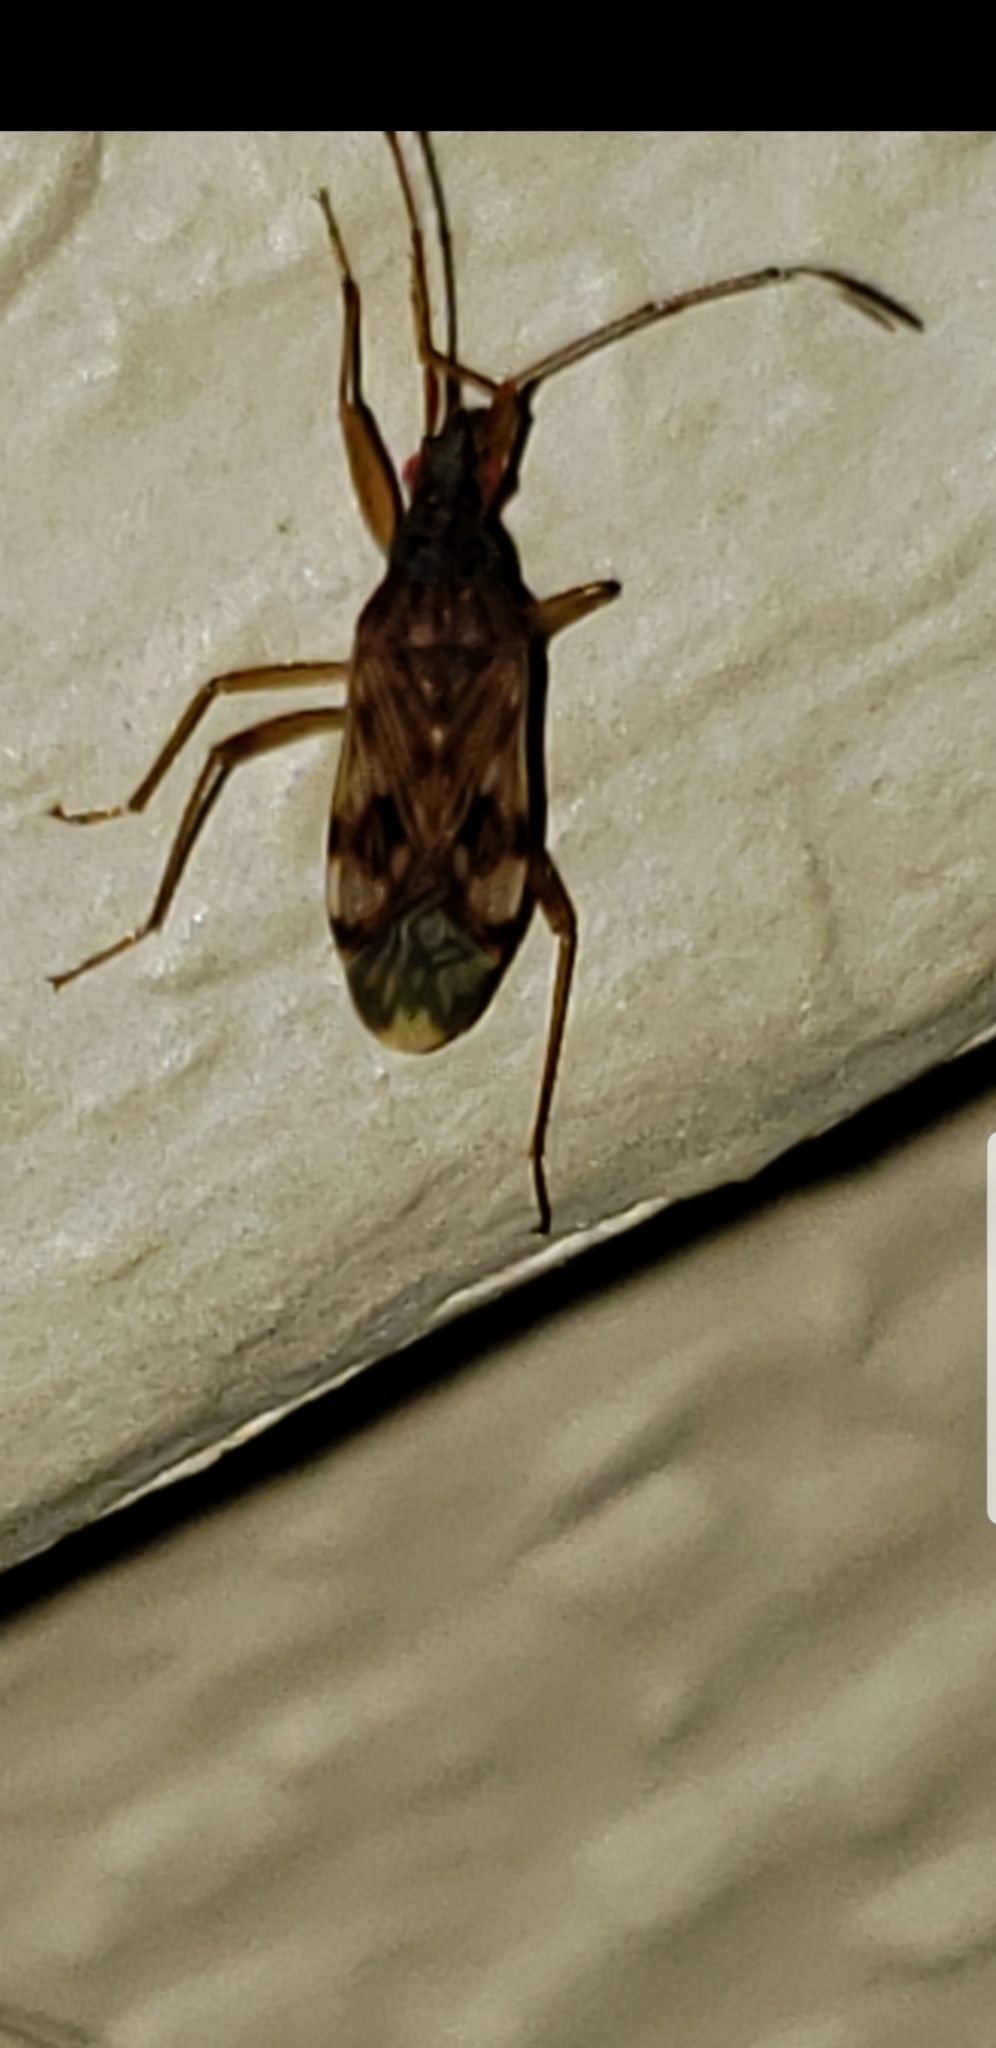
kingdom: Animalia
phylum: Arthropoda
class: Insecta
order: Hemiptera
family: Rhyparochromidae
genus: Ozophora
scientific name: Ozophora picturata
